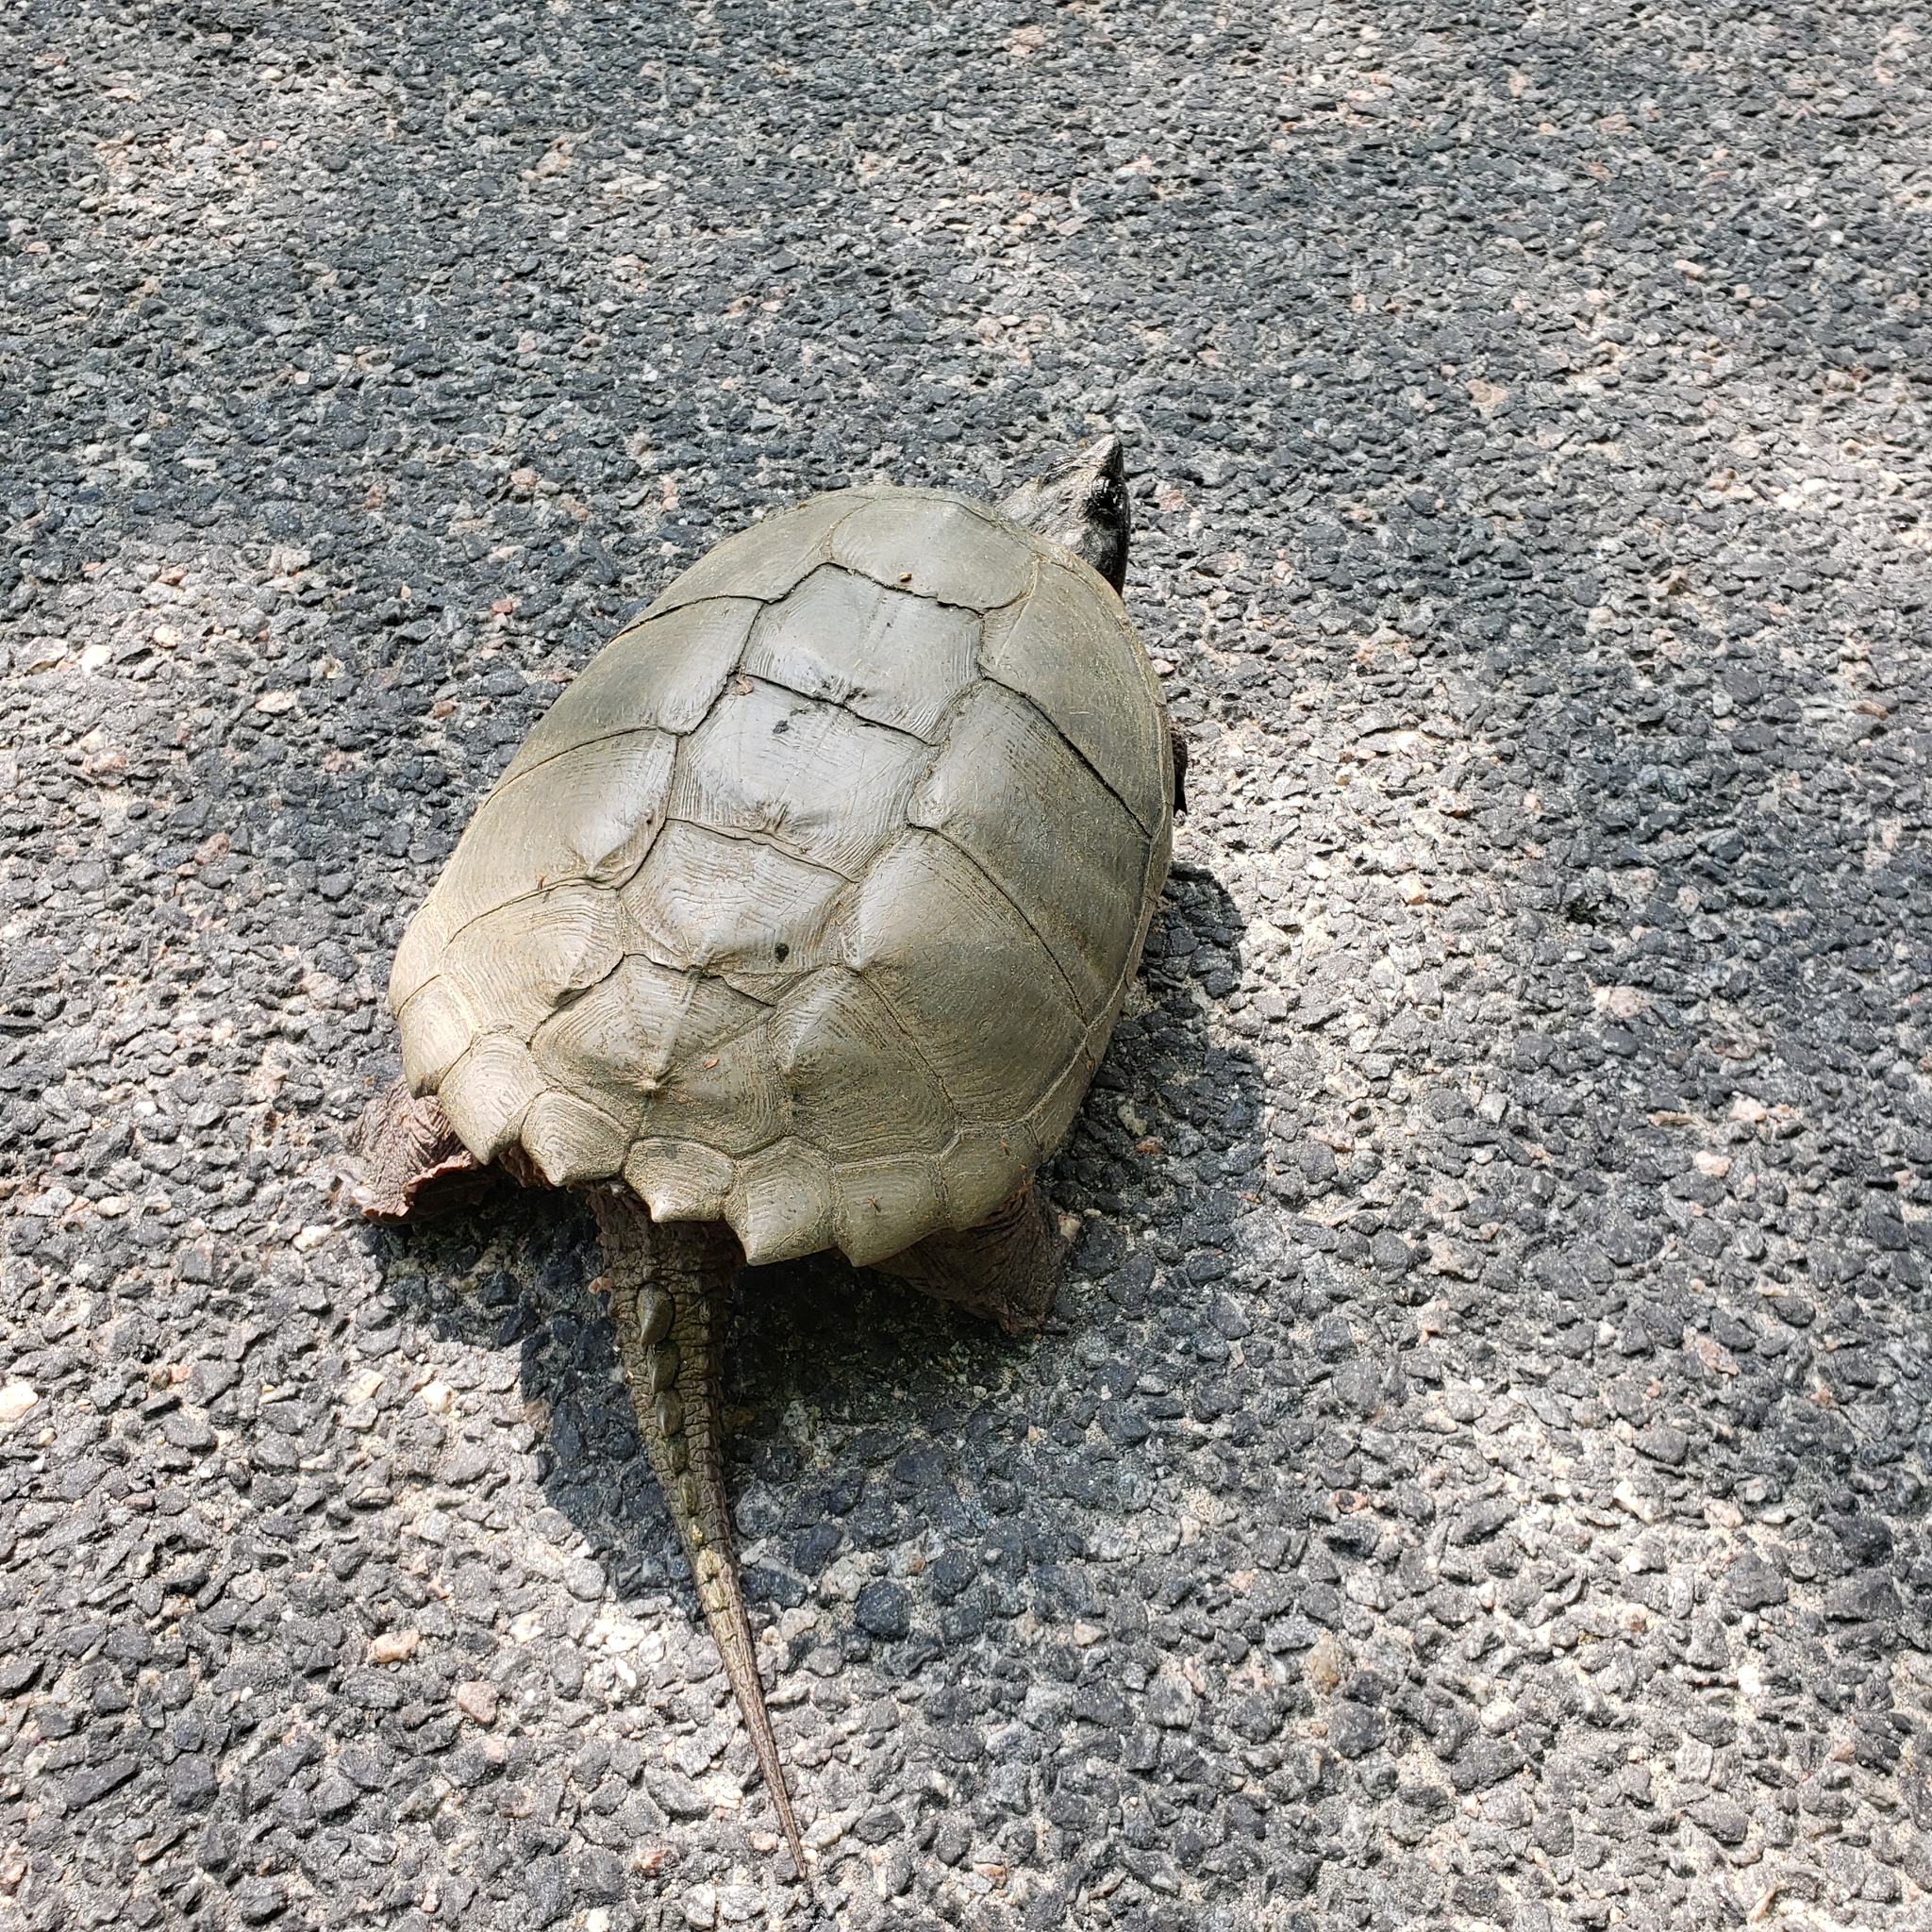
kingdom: Animalia
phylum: Chordata
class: Testudines
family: Chelydridae
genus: Chelydra
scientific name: Chelydra serpentina
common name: Common snapping turtle
